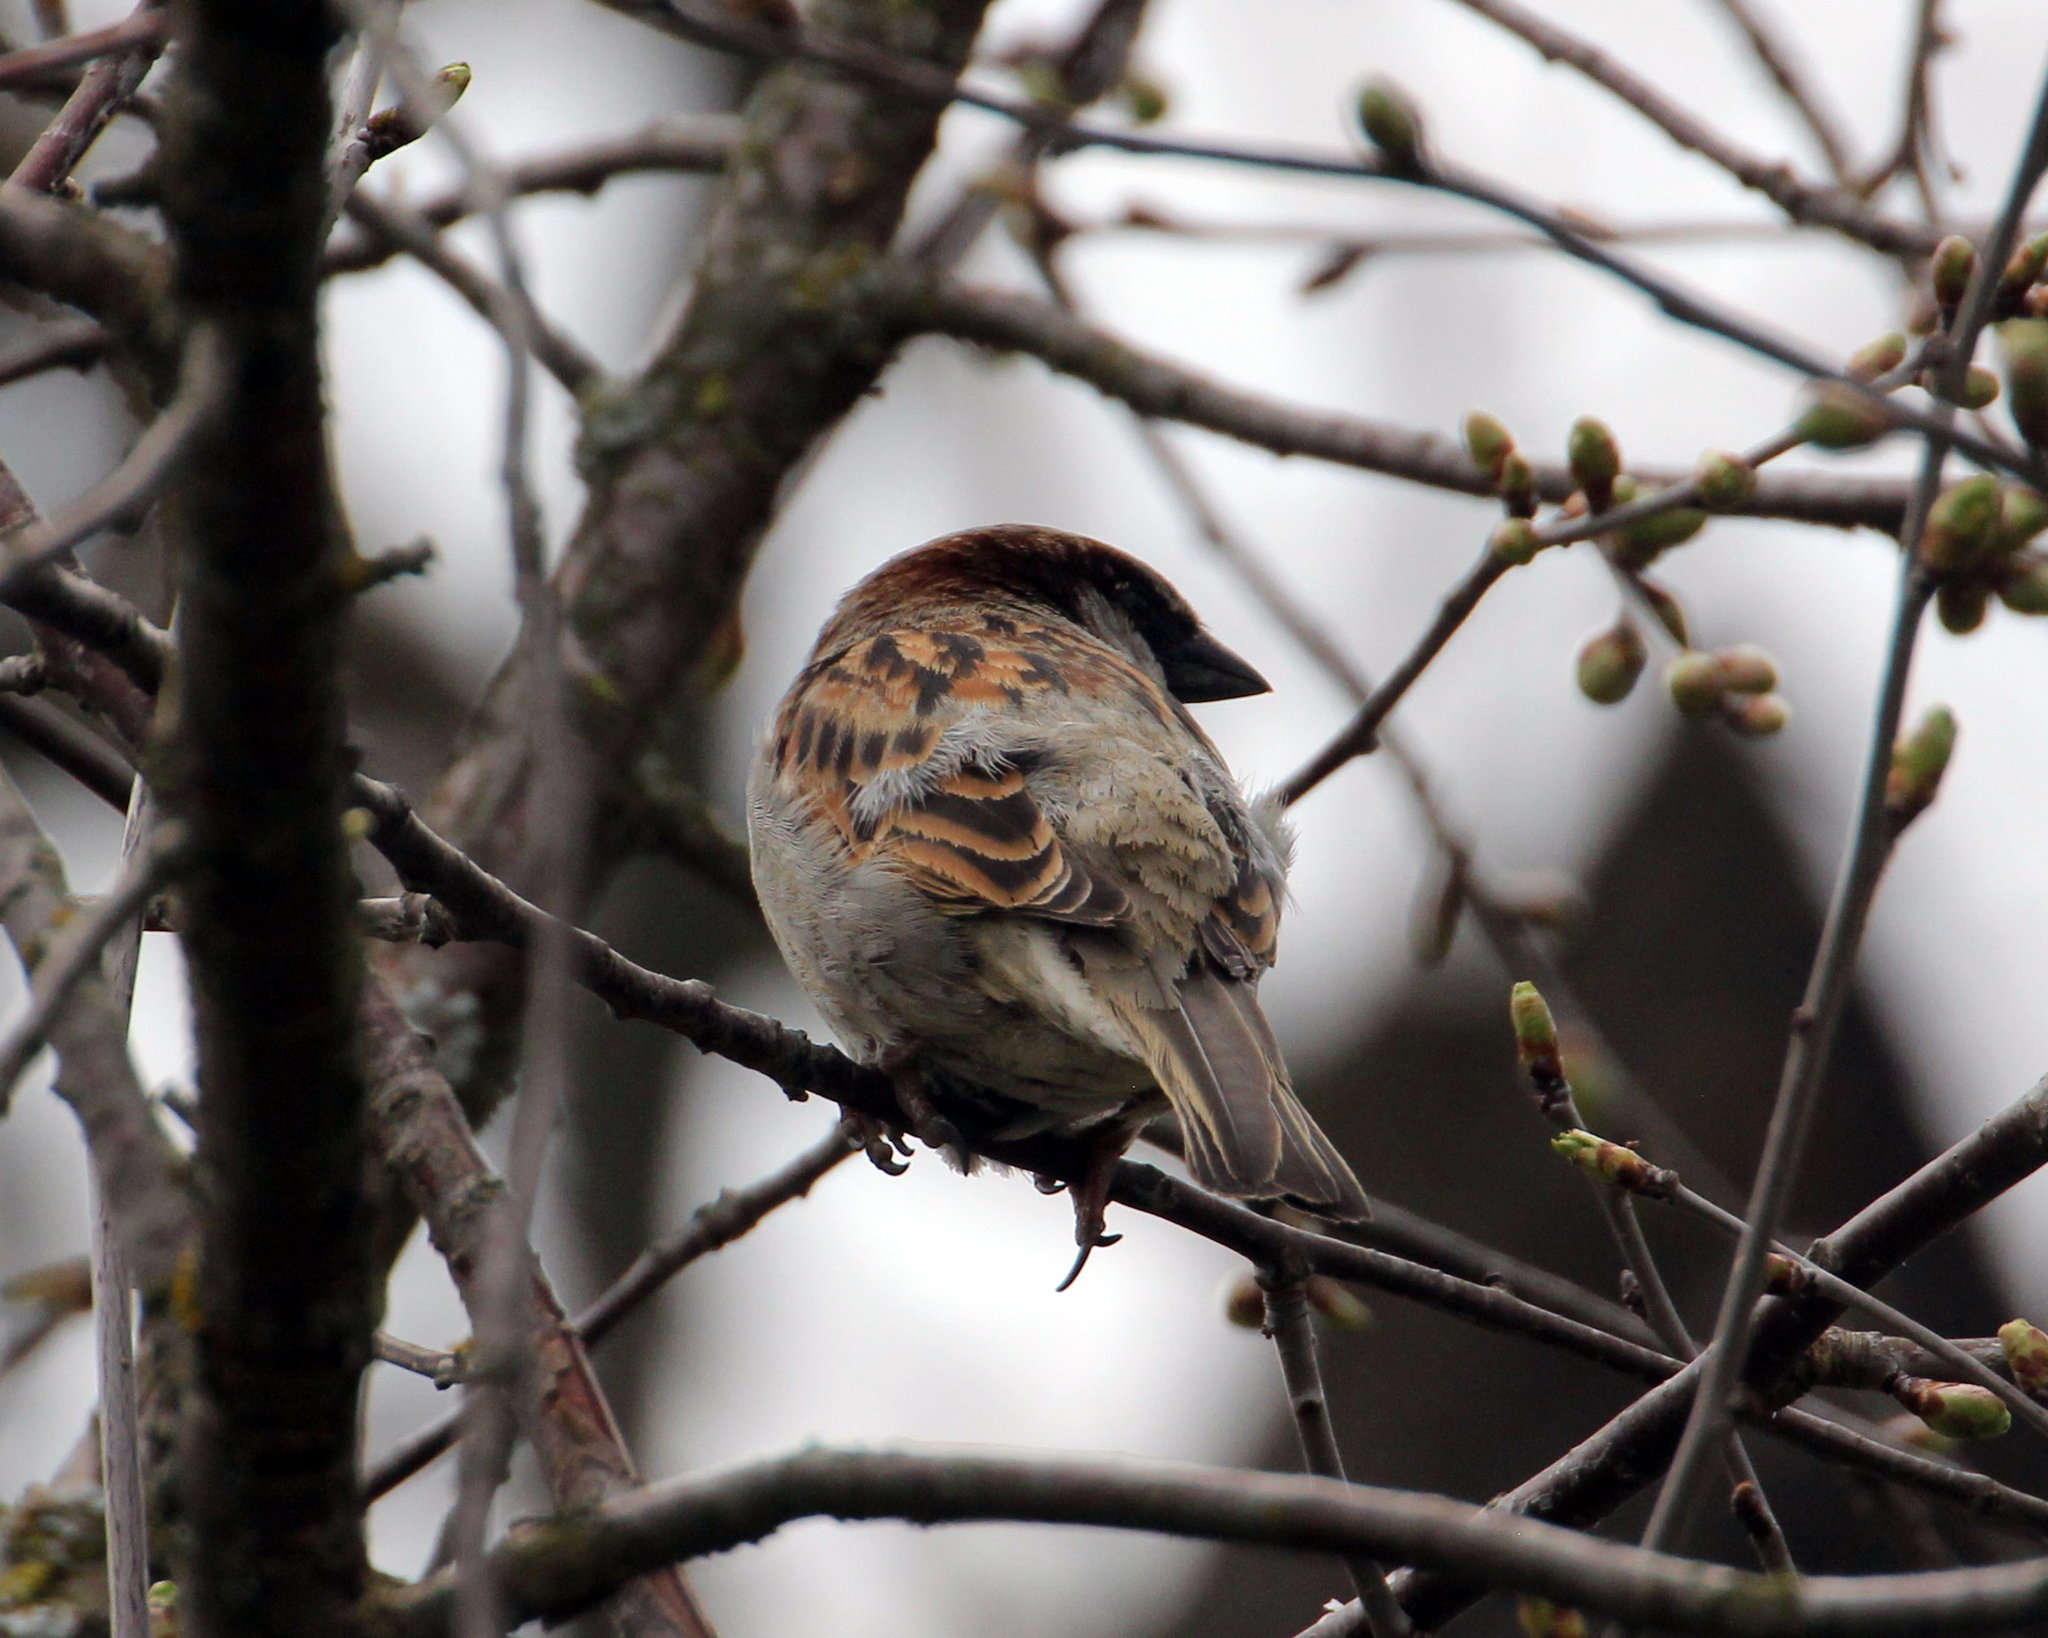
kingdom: Animalia
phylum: Chordata
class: Aves
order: Passeriformes
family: Passeridae
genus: Passer
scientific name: Passer domesticus
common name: House sparrow
